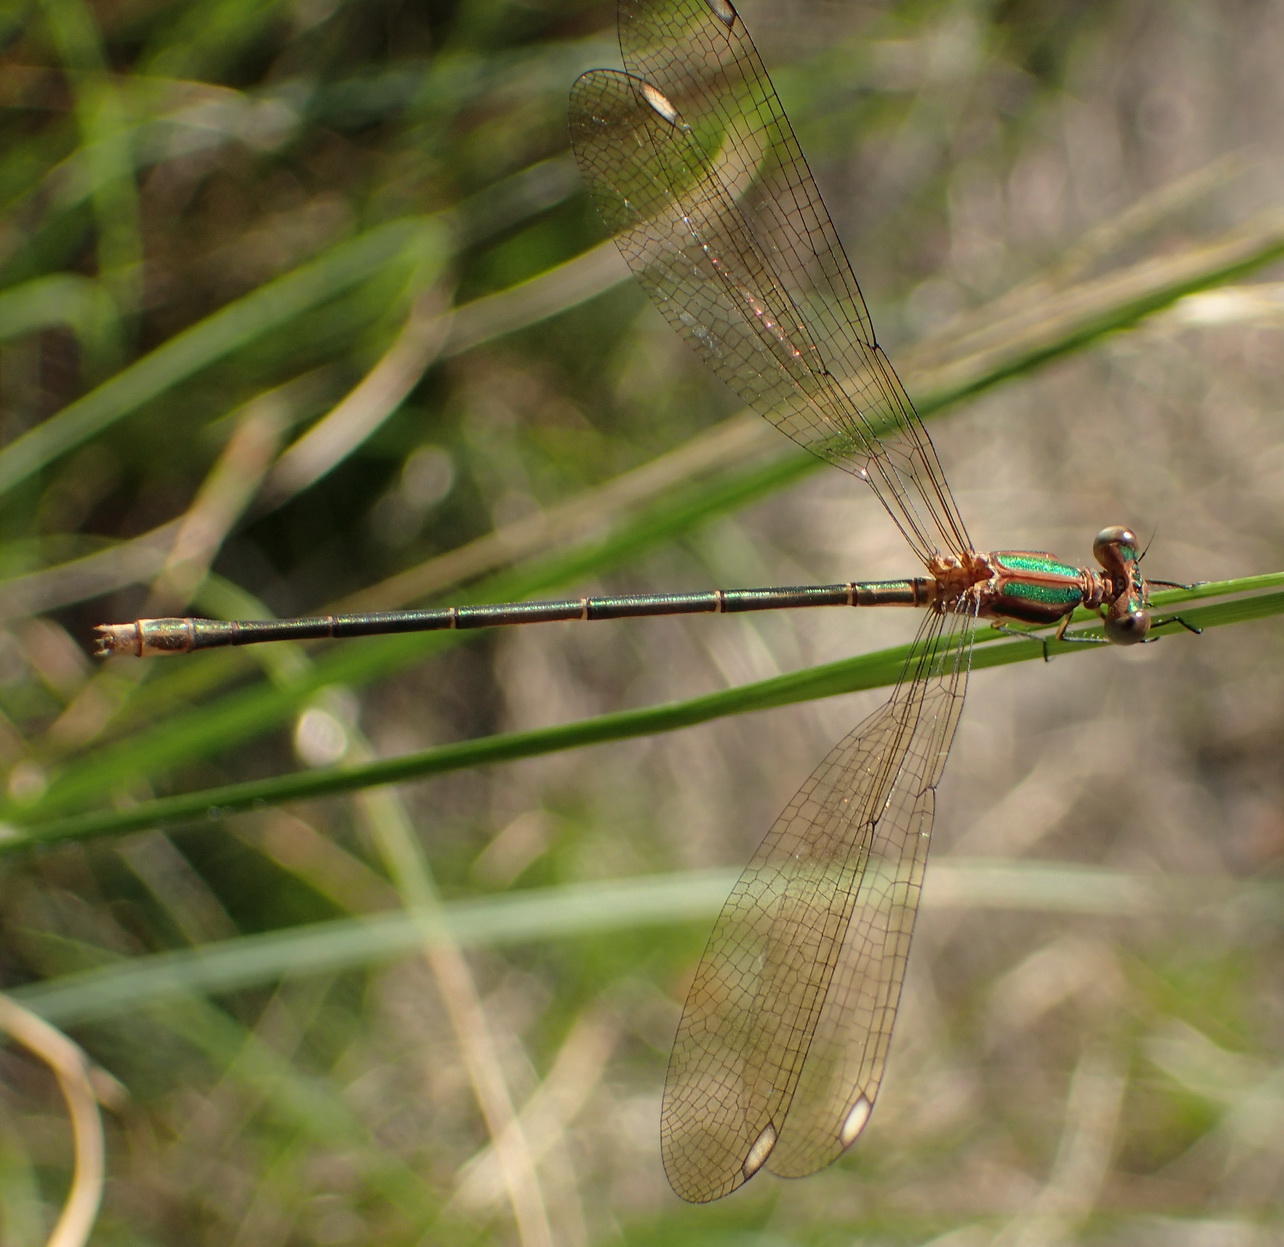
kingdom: Animalia
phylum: Arthropoda
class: Insecta
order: Odonata
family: Lestidae
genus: Lestes
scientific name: Lestes virgatus
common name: Smoky spreadwing
